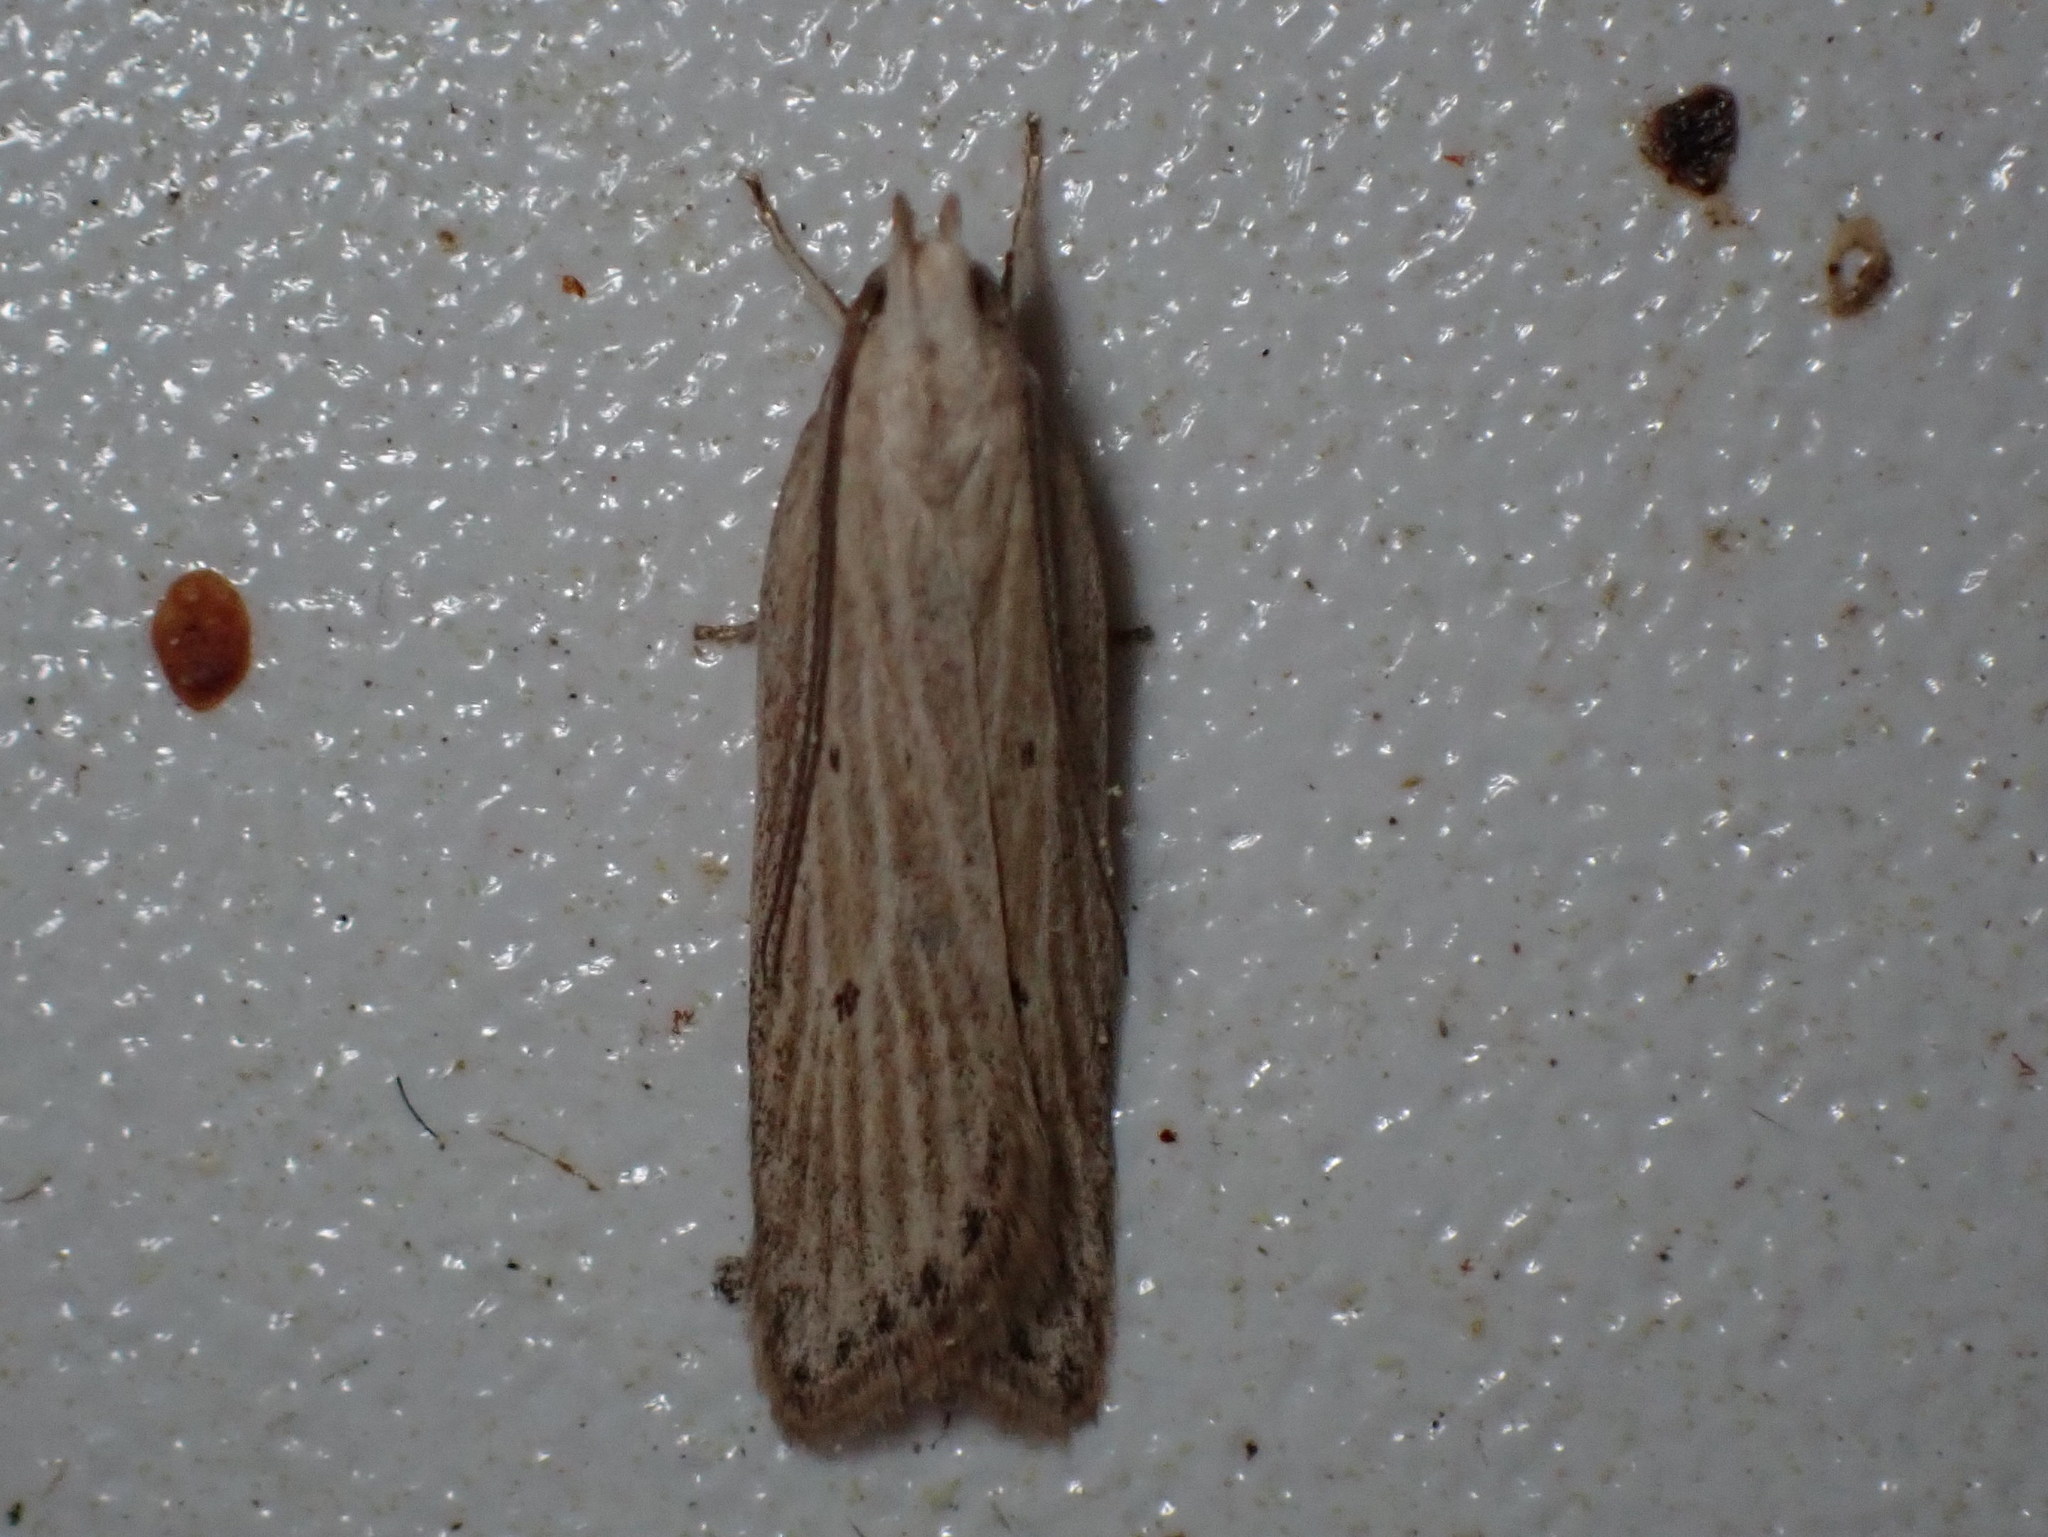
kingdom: Animalia
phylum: Arthropoda
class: Insecta
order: Lepidoptera
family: Gelechiidae
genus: Helcystogramma
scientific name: Helcystogramma fernaldella
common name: Fernald's helcystogramma moth
